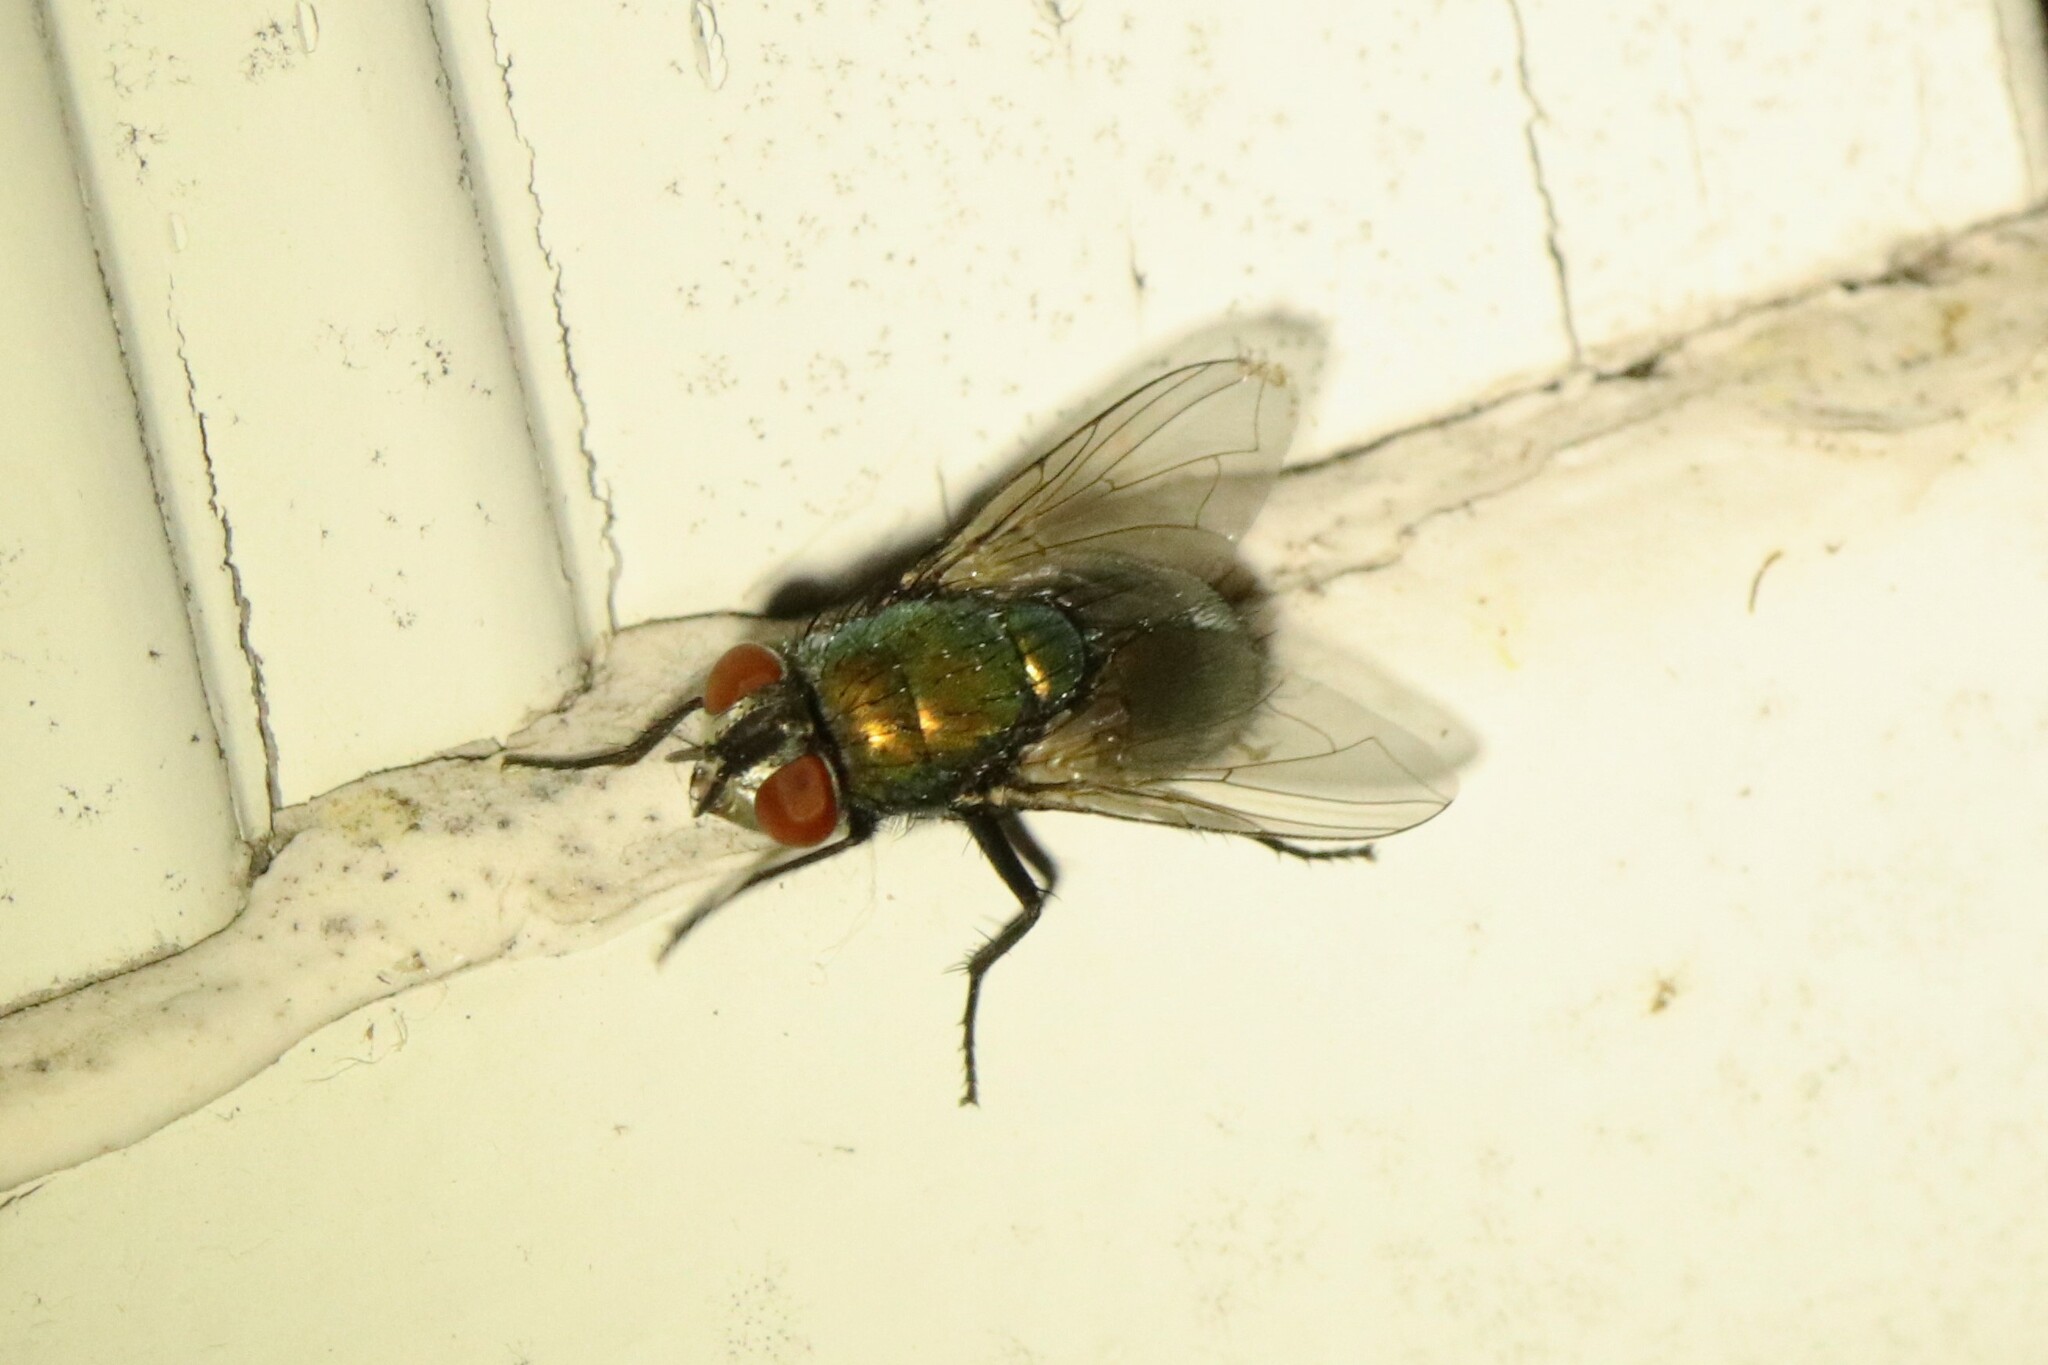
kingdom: Animalia
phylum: Arthropoda
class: Insecta
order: Diptera
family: Calliphoridae
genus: Lucilia
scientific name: Lucilia sericata
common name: Blow fly
